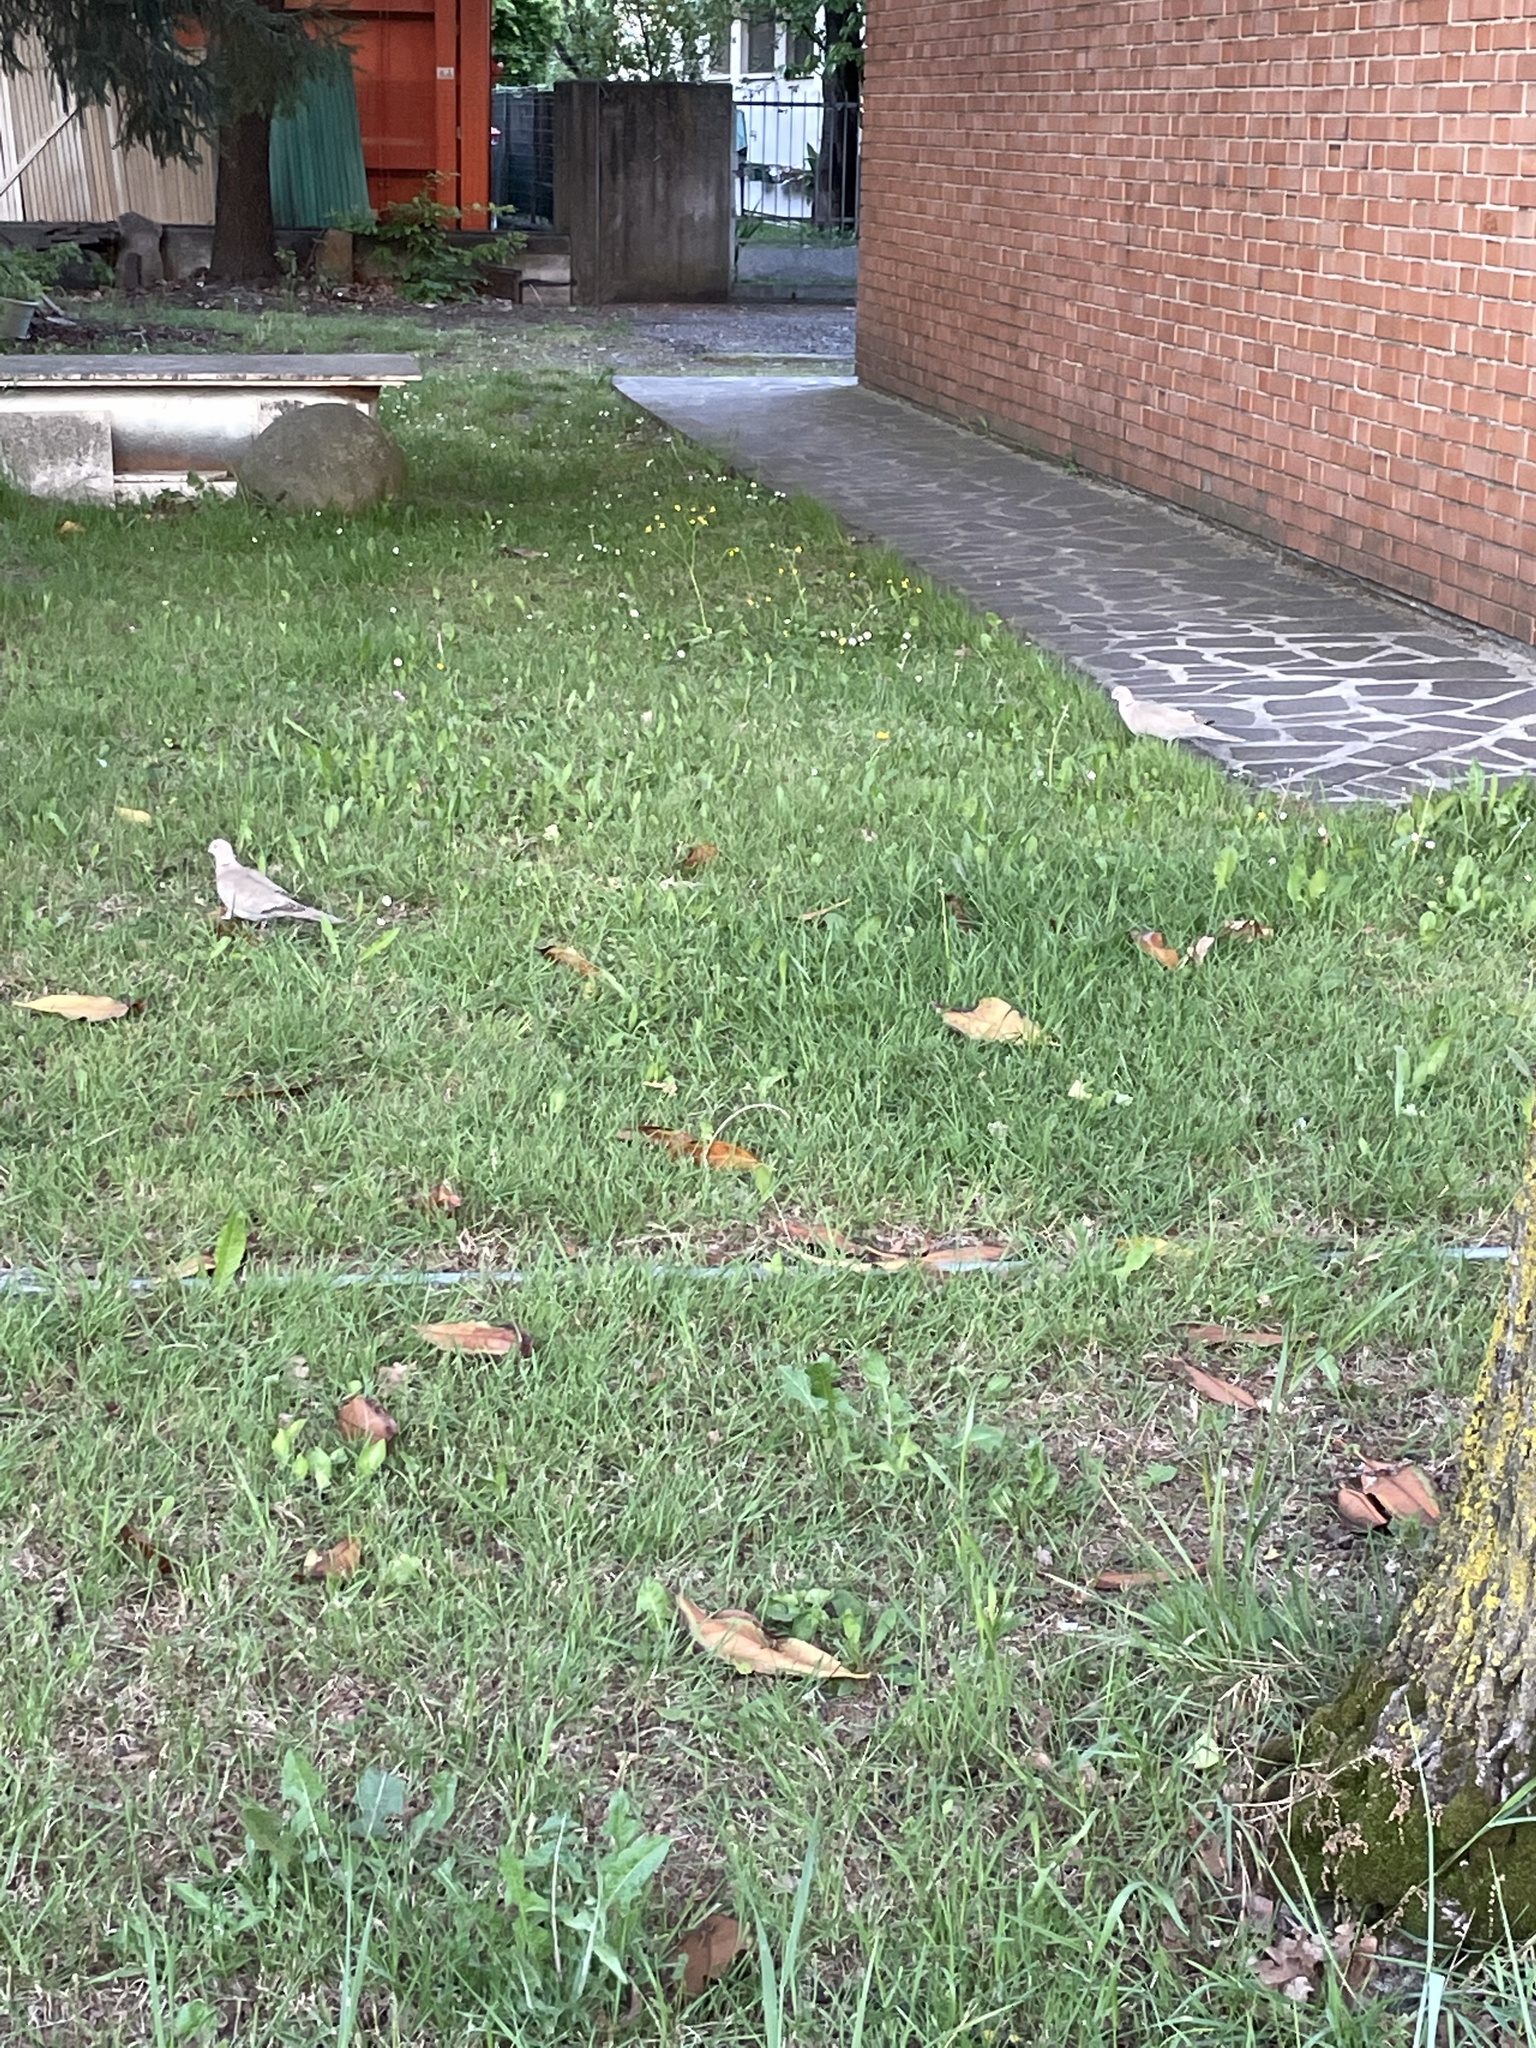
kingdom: Animalia
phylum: Chordata
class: Aves
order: Columbiformes
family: Columbidae
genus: Streptopelia
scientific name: Streptopelia decaocto
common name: Eurasian collared dove
